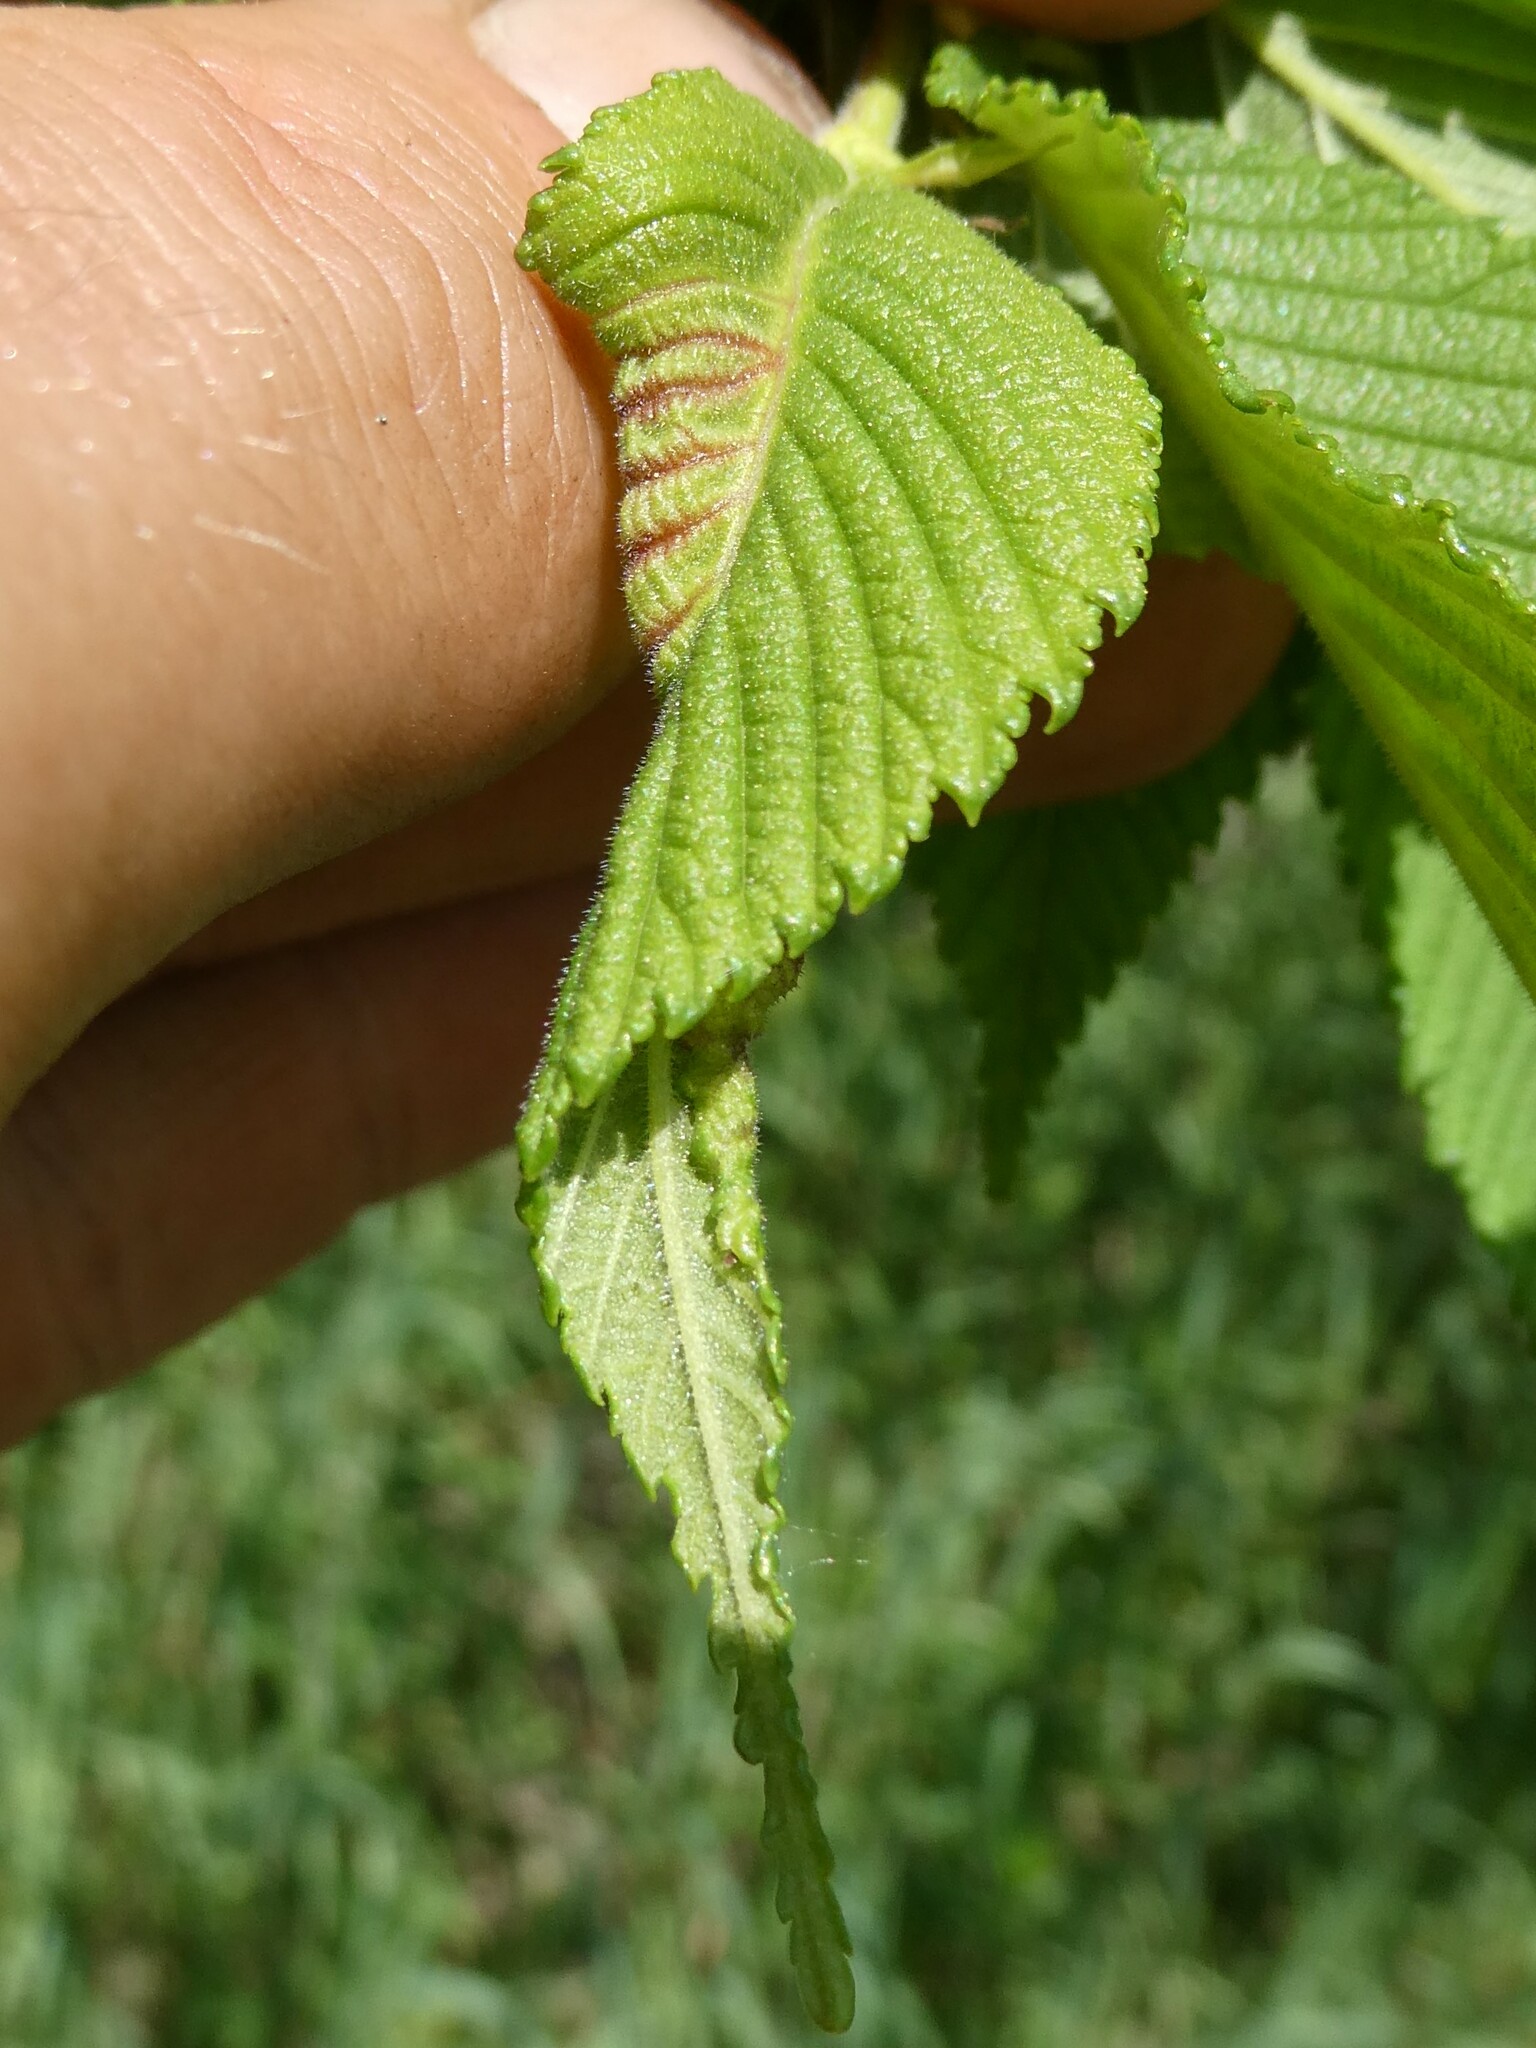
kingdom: Plantae
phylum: Tracheophyta
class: Magnoliopsida
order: Rosales
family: Ulmaceae
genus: Ulmus
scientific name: Ulmus rubra
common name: Slippery elm
